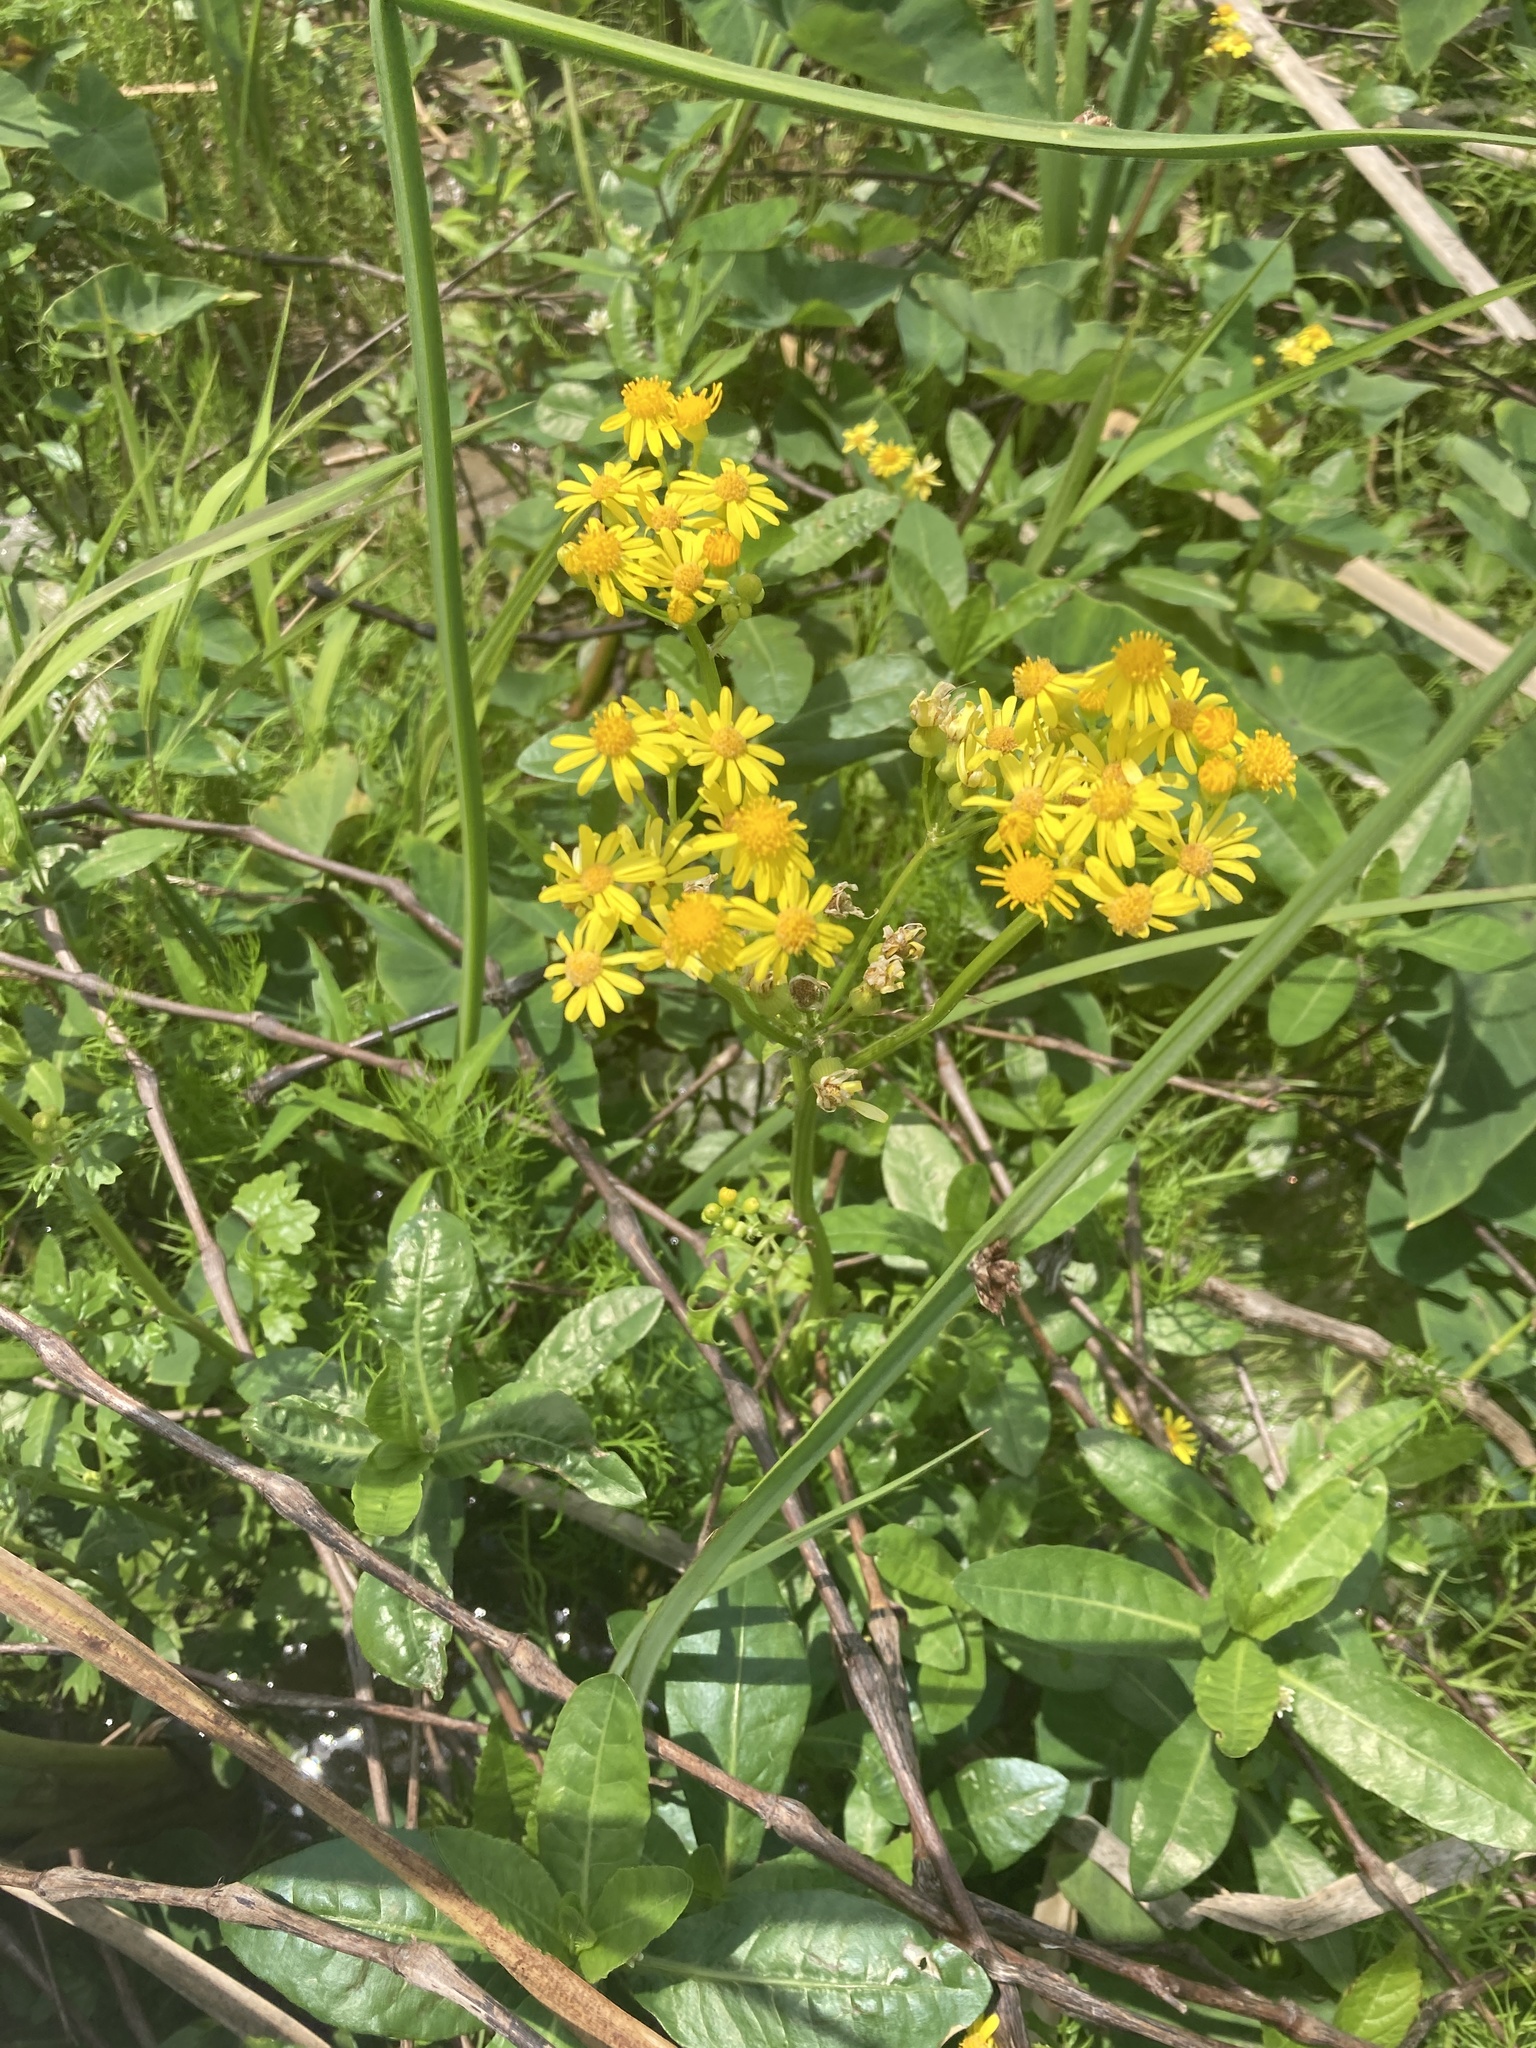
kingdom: Plantae
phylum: Tracheophyta
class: Magnoliopsida
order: Asterales
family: Asteraceae
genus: Packera
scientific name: Packera glabella
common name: Butterweed
